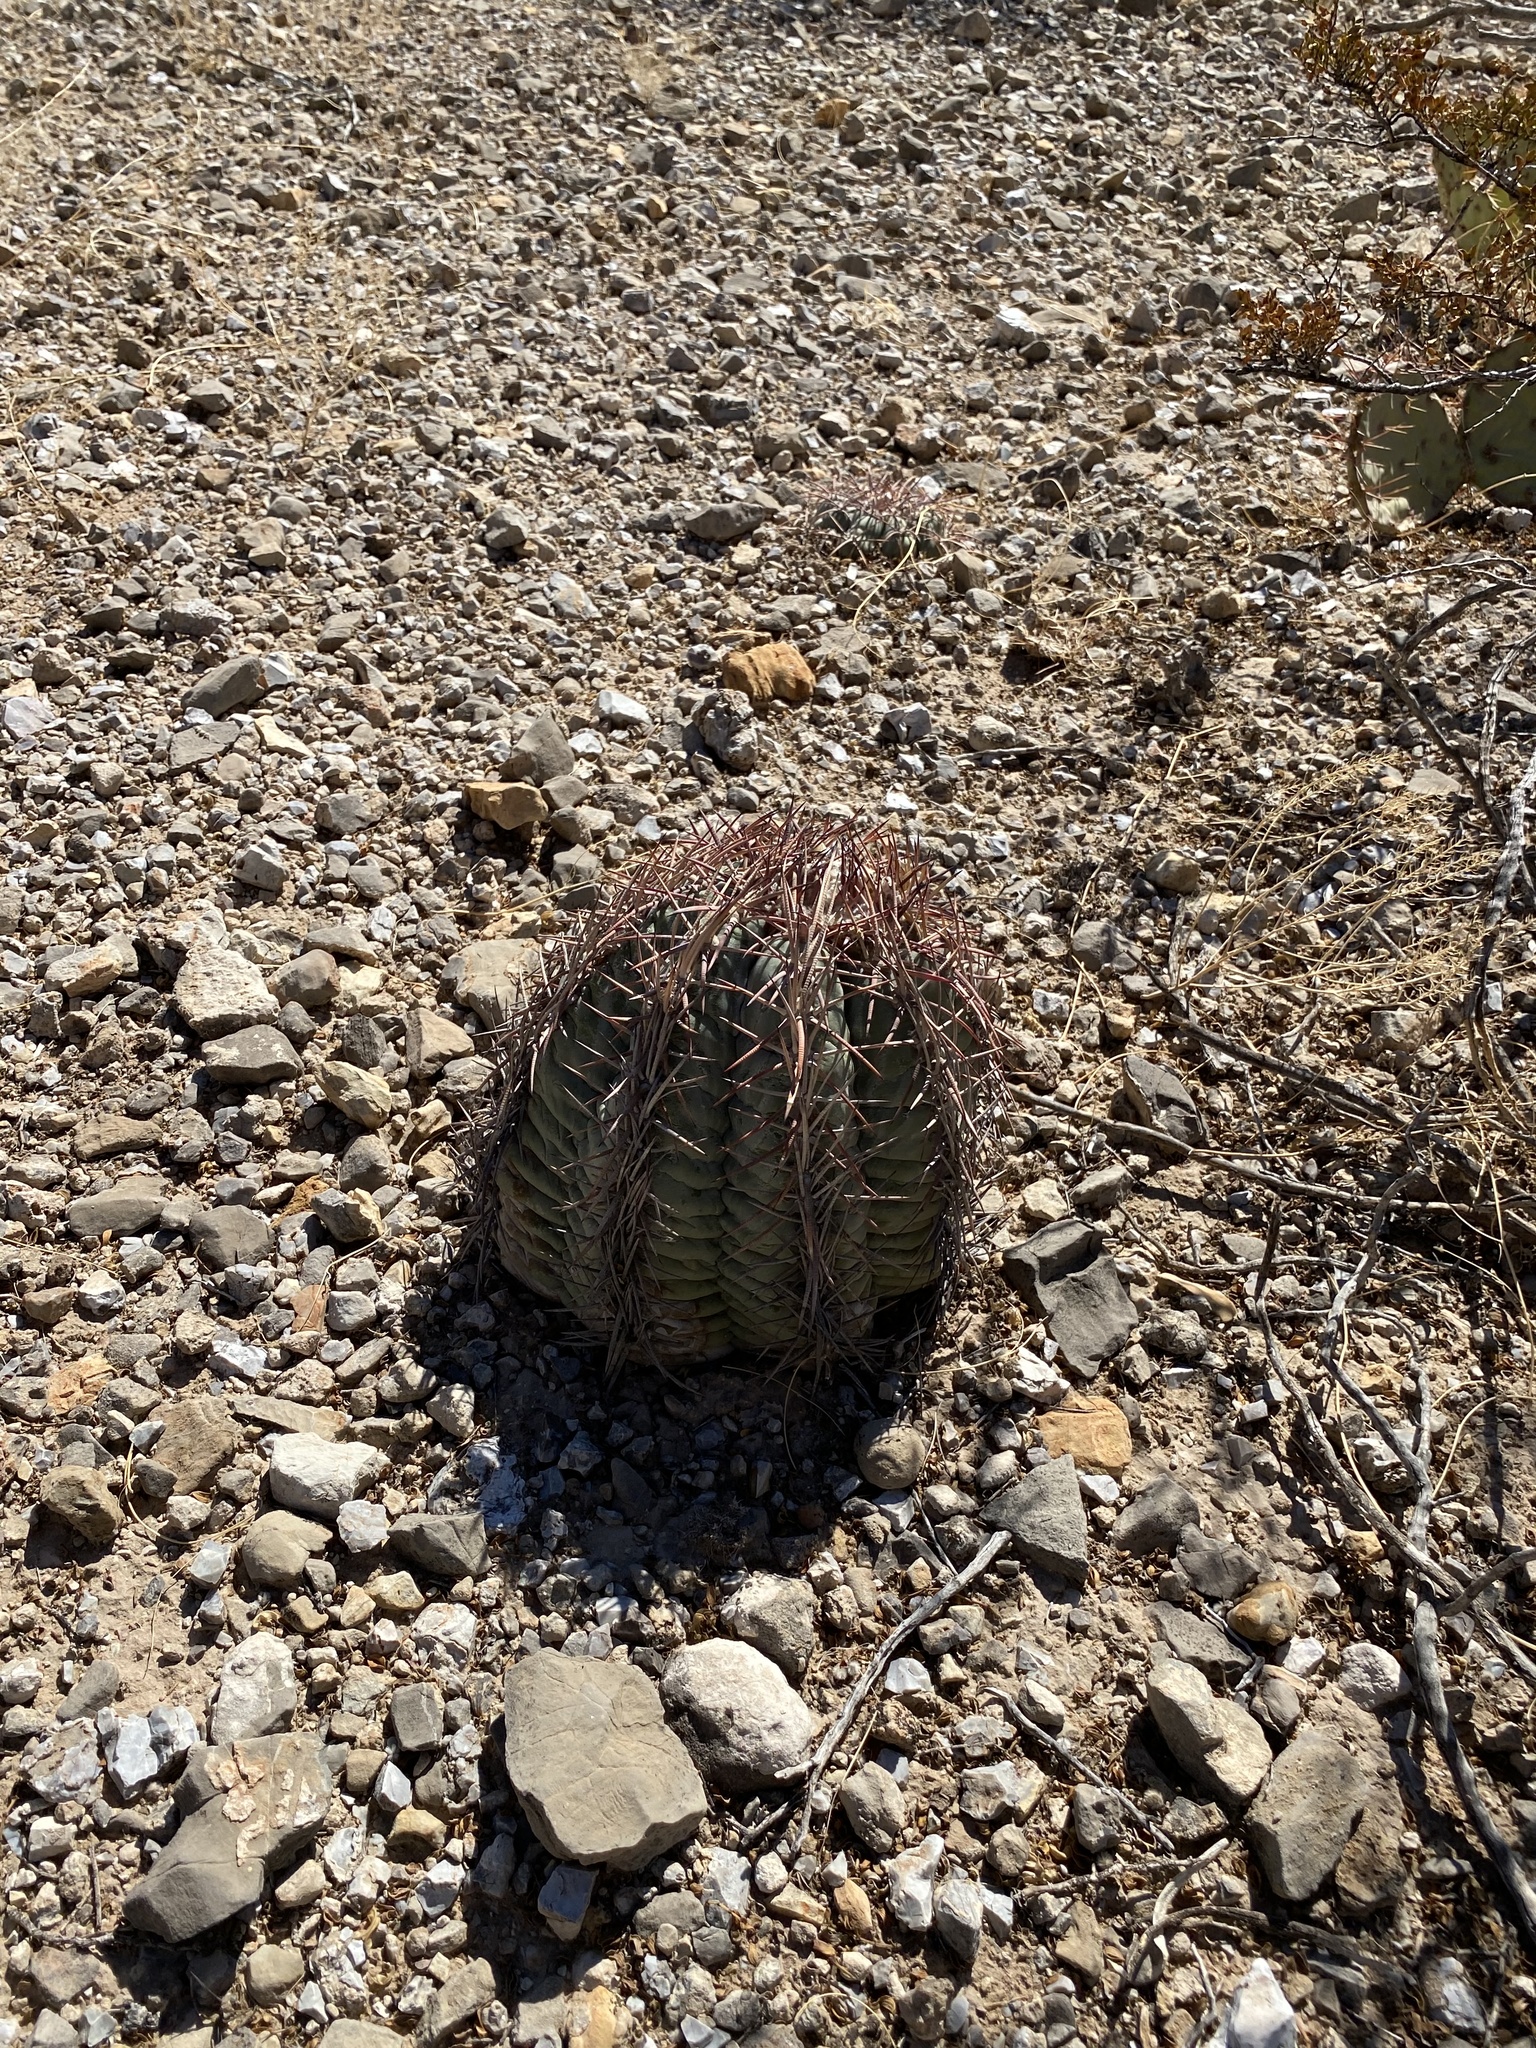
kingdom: Plantae
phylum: Tracheophyta
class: Magnoliopsida
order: Caryophyllales
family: Cactaceae
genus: Echinocactus
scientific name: Echinocactus horizonthalonius
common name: Devilshead
